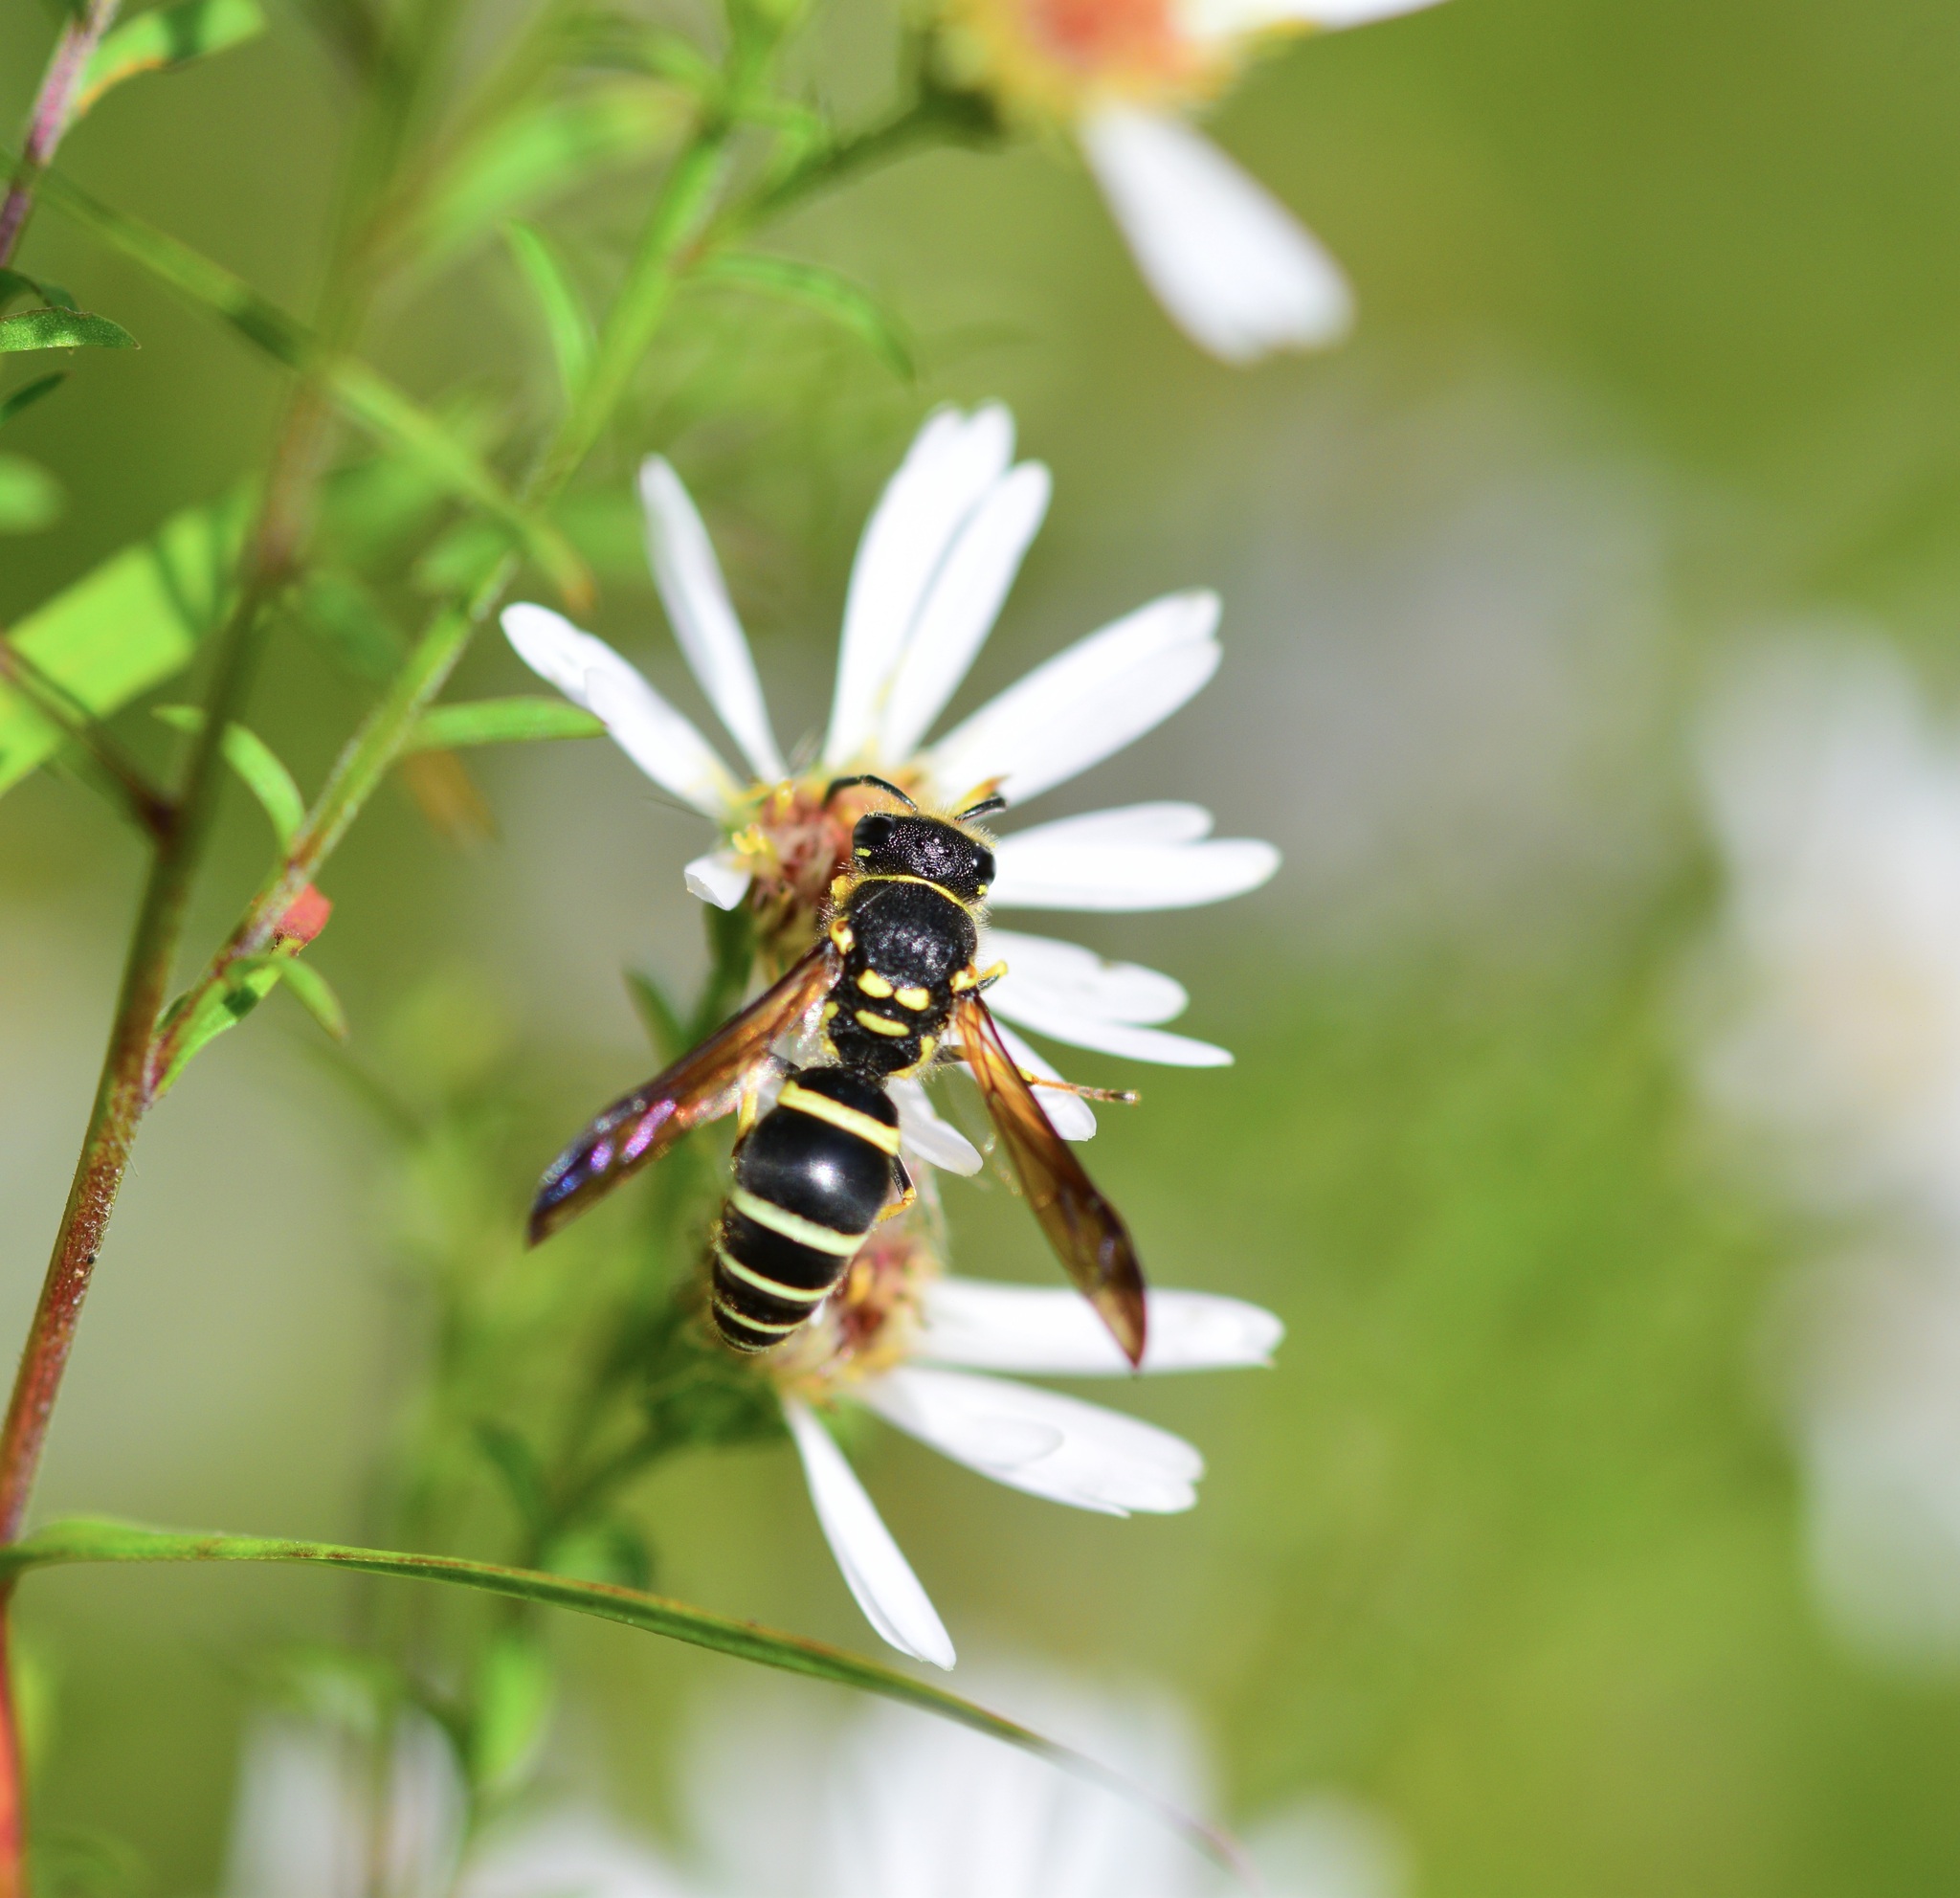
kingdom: Animalia
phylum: Arthropoda
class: Insecta
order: Hymenoptera
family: Vespidae
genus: Ancistrocerus
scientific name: Ancistrocerus catskill
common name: Vespid wasp
